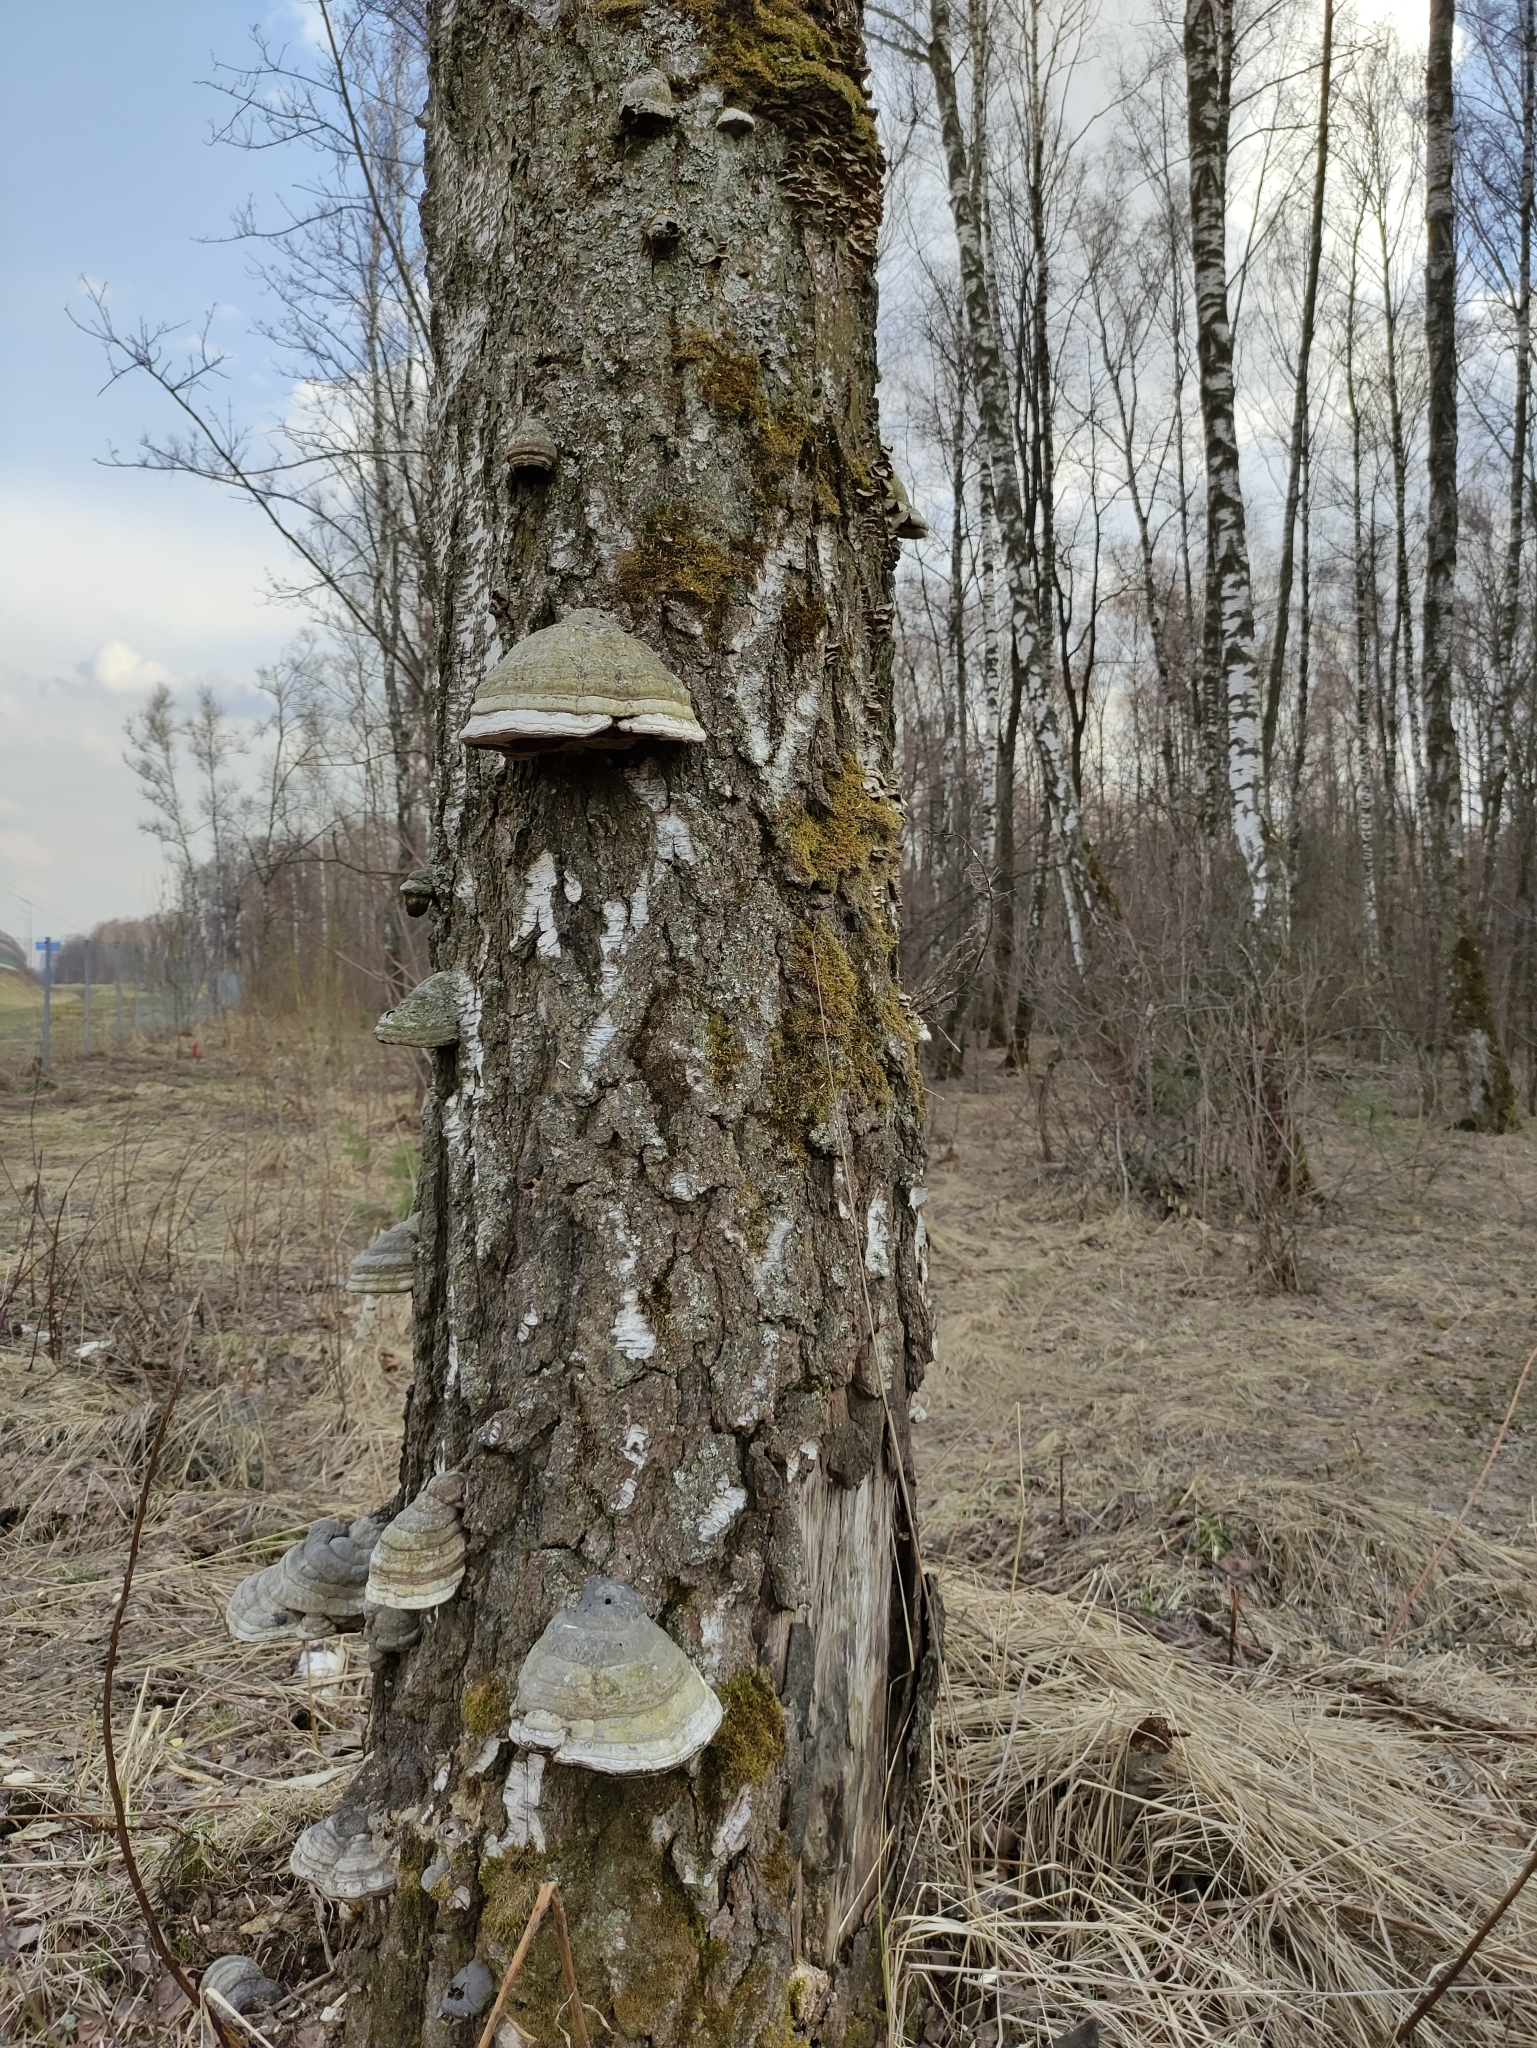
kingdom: Fungi
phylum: Basidiomycota
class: Agaricomycetes
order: Polyporales
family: Polyporaceae
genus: Fomes
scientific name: Fomes fomentarius
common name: Hoof fungus
